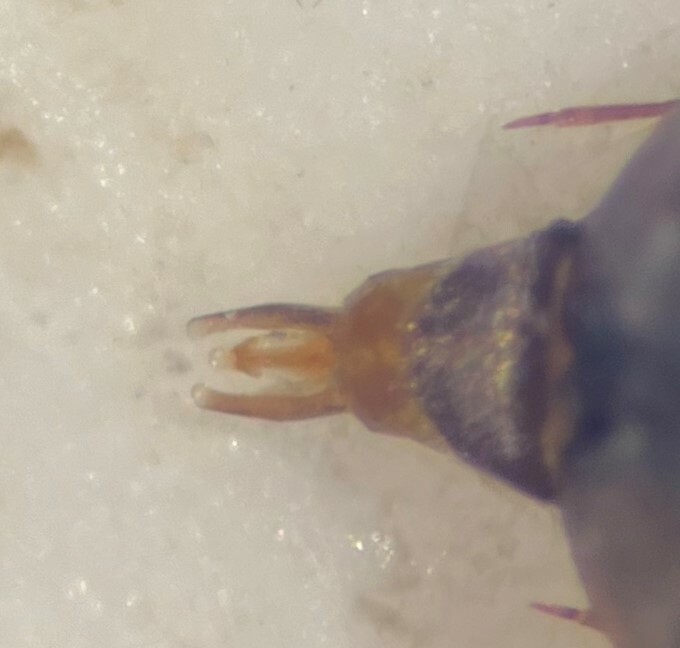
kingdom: Animalia
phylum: Arthropoda
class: Insecta
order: Coleoptera
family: Hydrophilidae
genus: Paracymus
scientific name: Paracymus confusus
